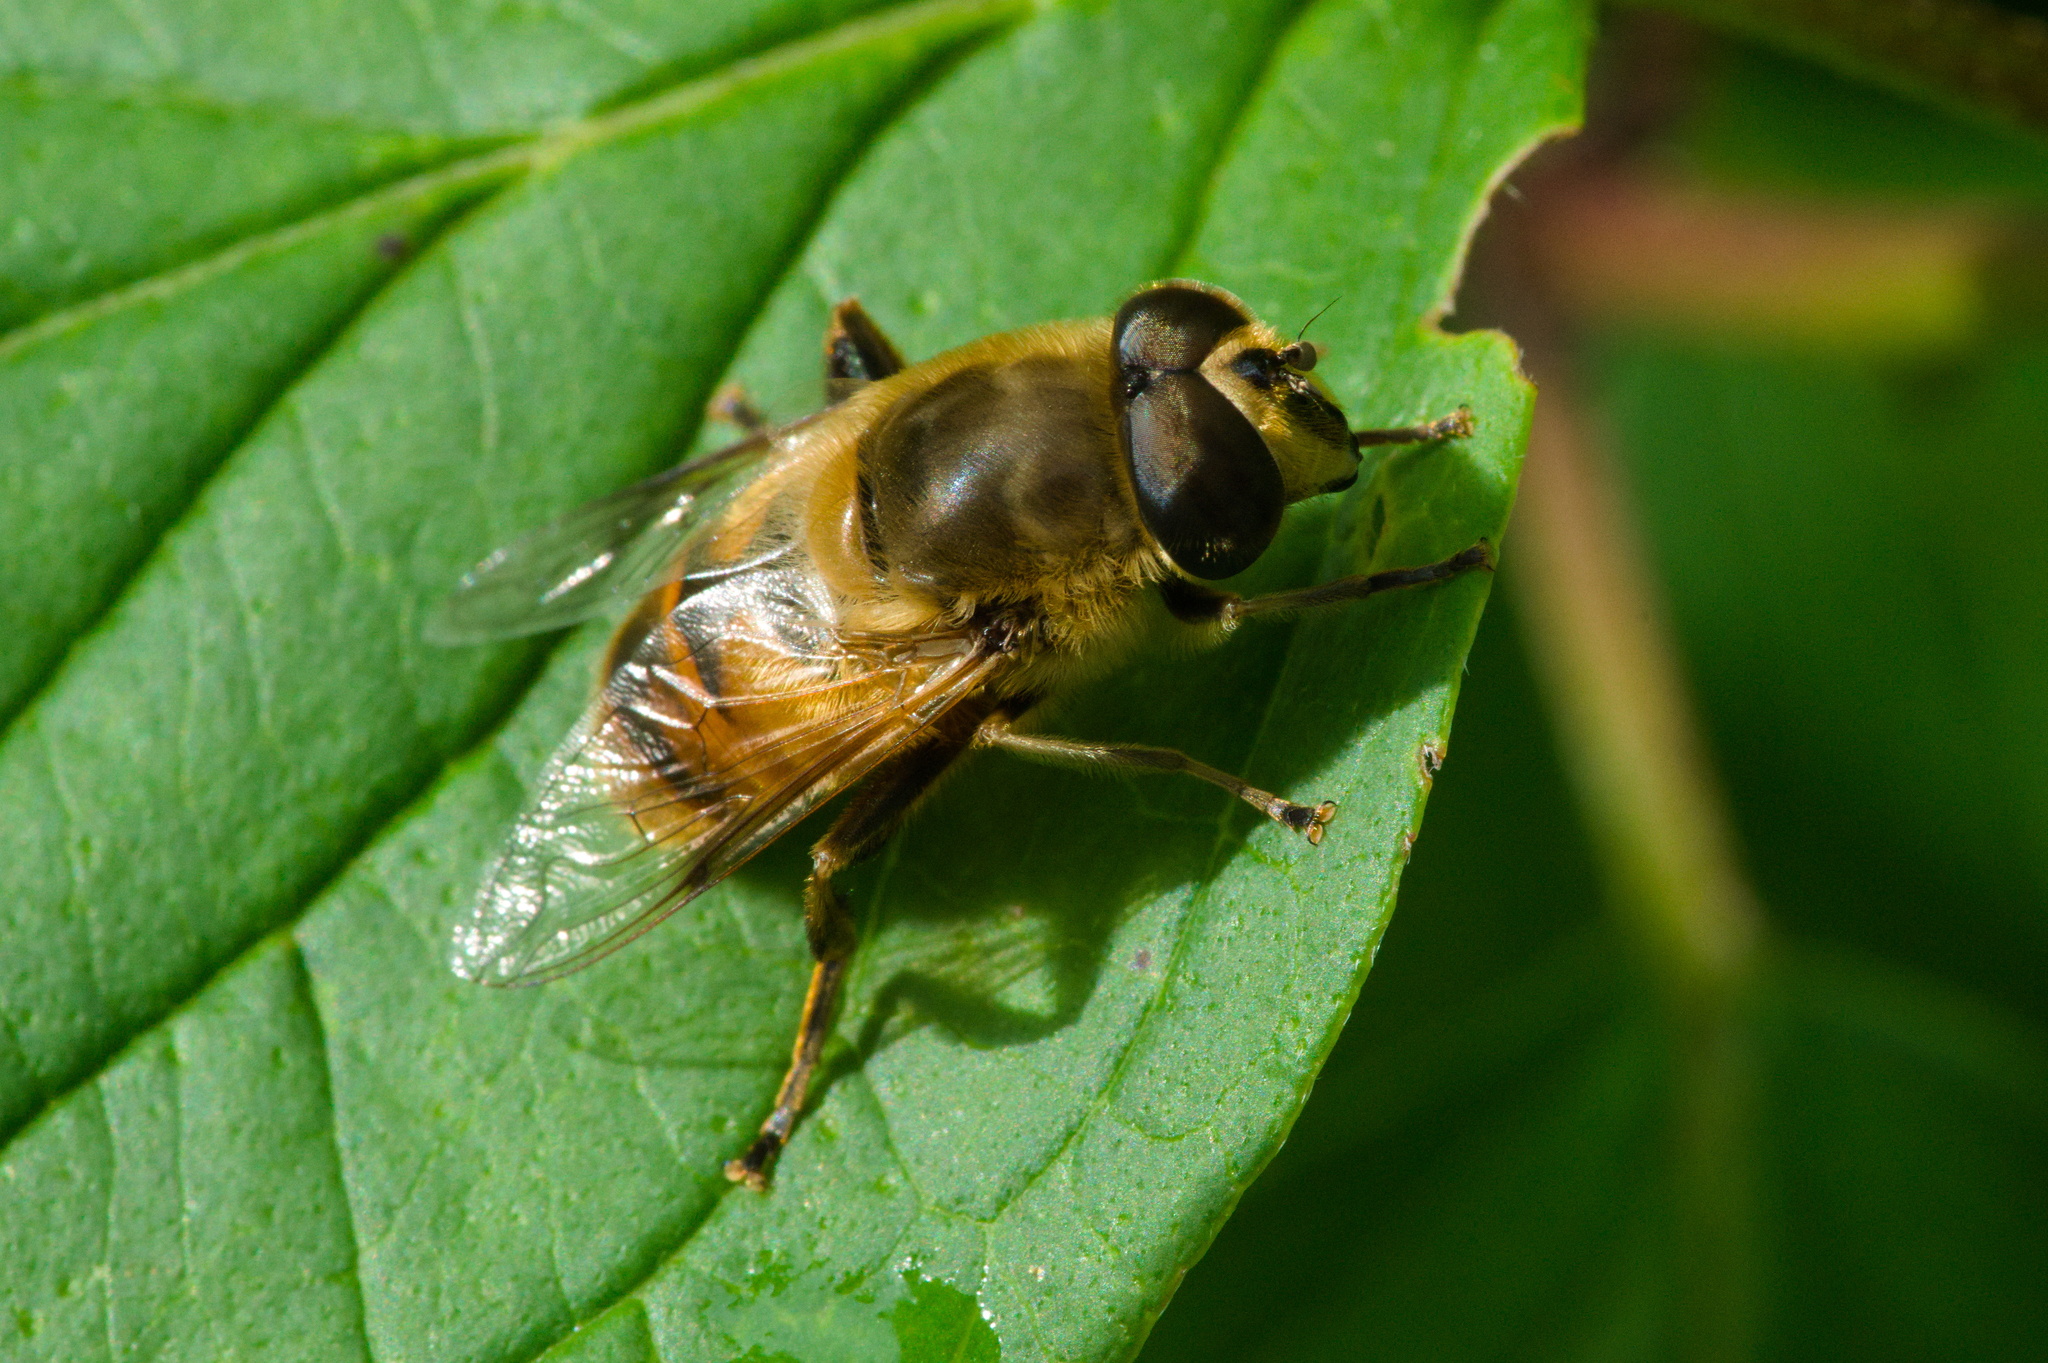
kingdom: Animalia
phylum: Arthropoda
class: Insecta
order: Diptera
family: Syrphidae
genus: Eristalis
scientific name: Eristalis tenax
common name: Drone fly
